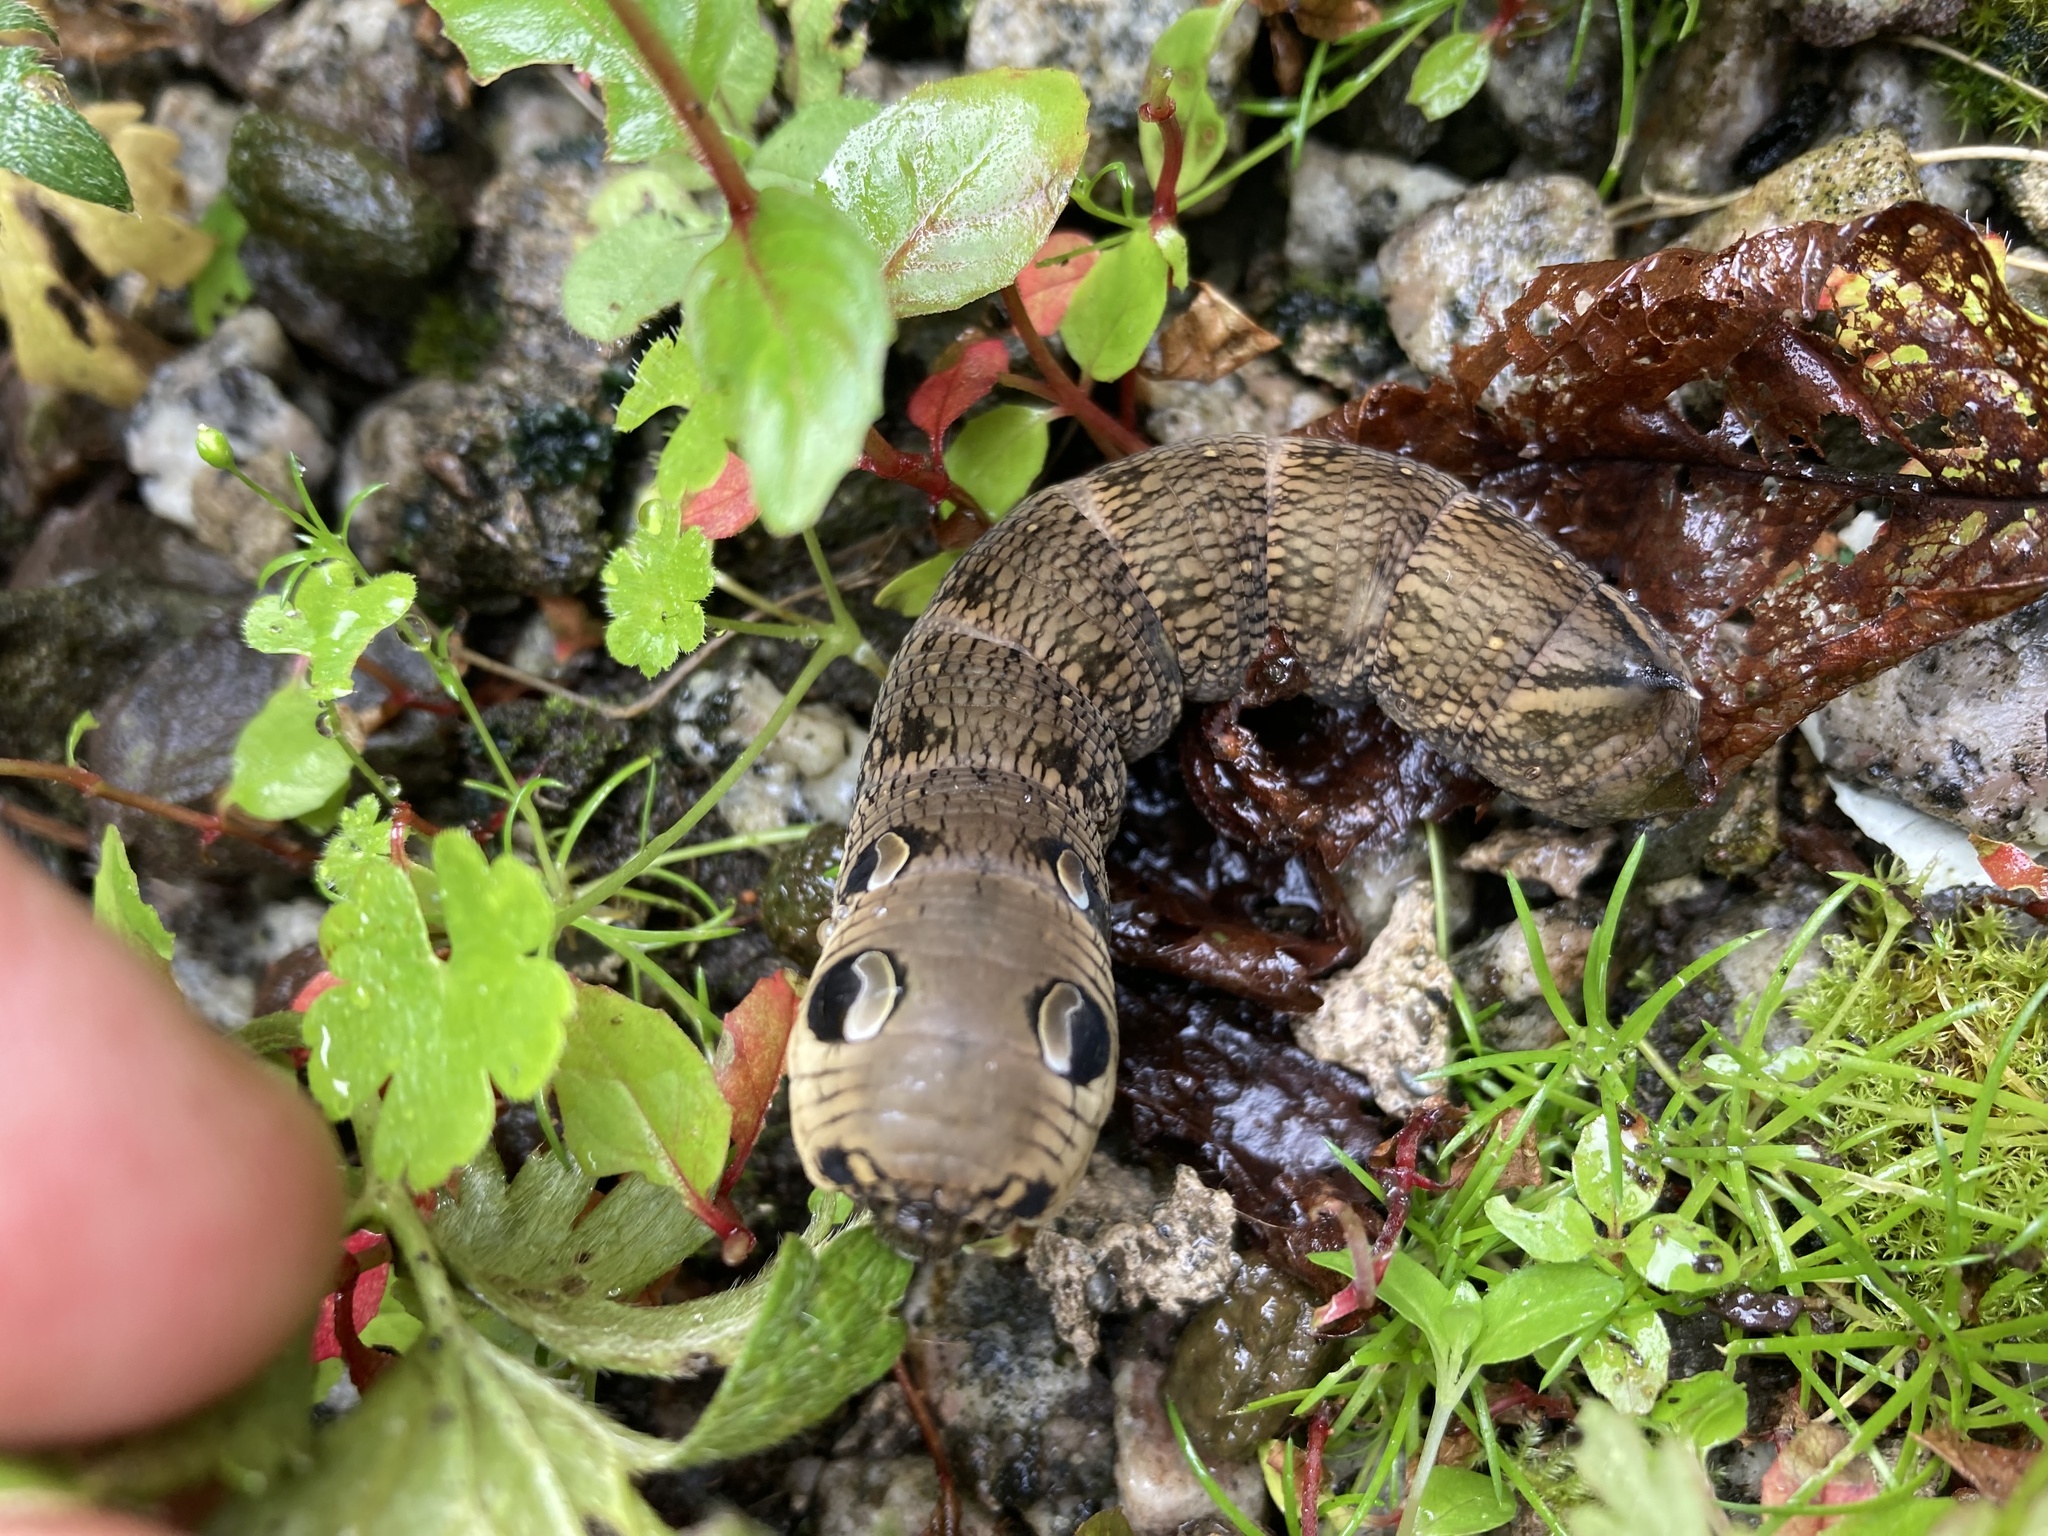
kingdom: Animalia
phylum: Arthropoda
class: Insecta
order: Lepidoptera
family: Sphingidae
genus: Deilephila
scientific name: Deilephila elpenor
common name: Elephant hawk-moth
